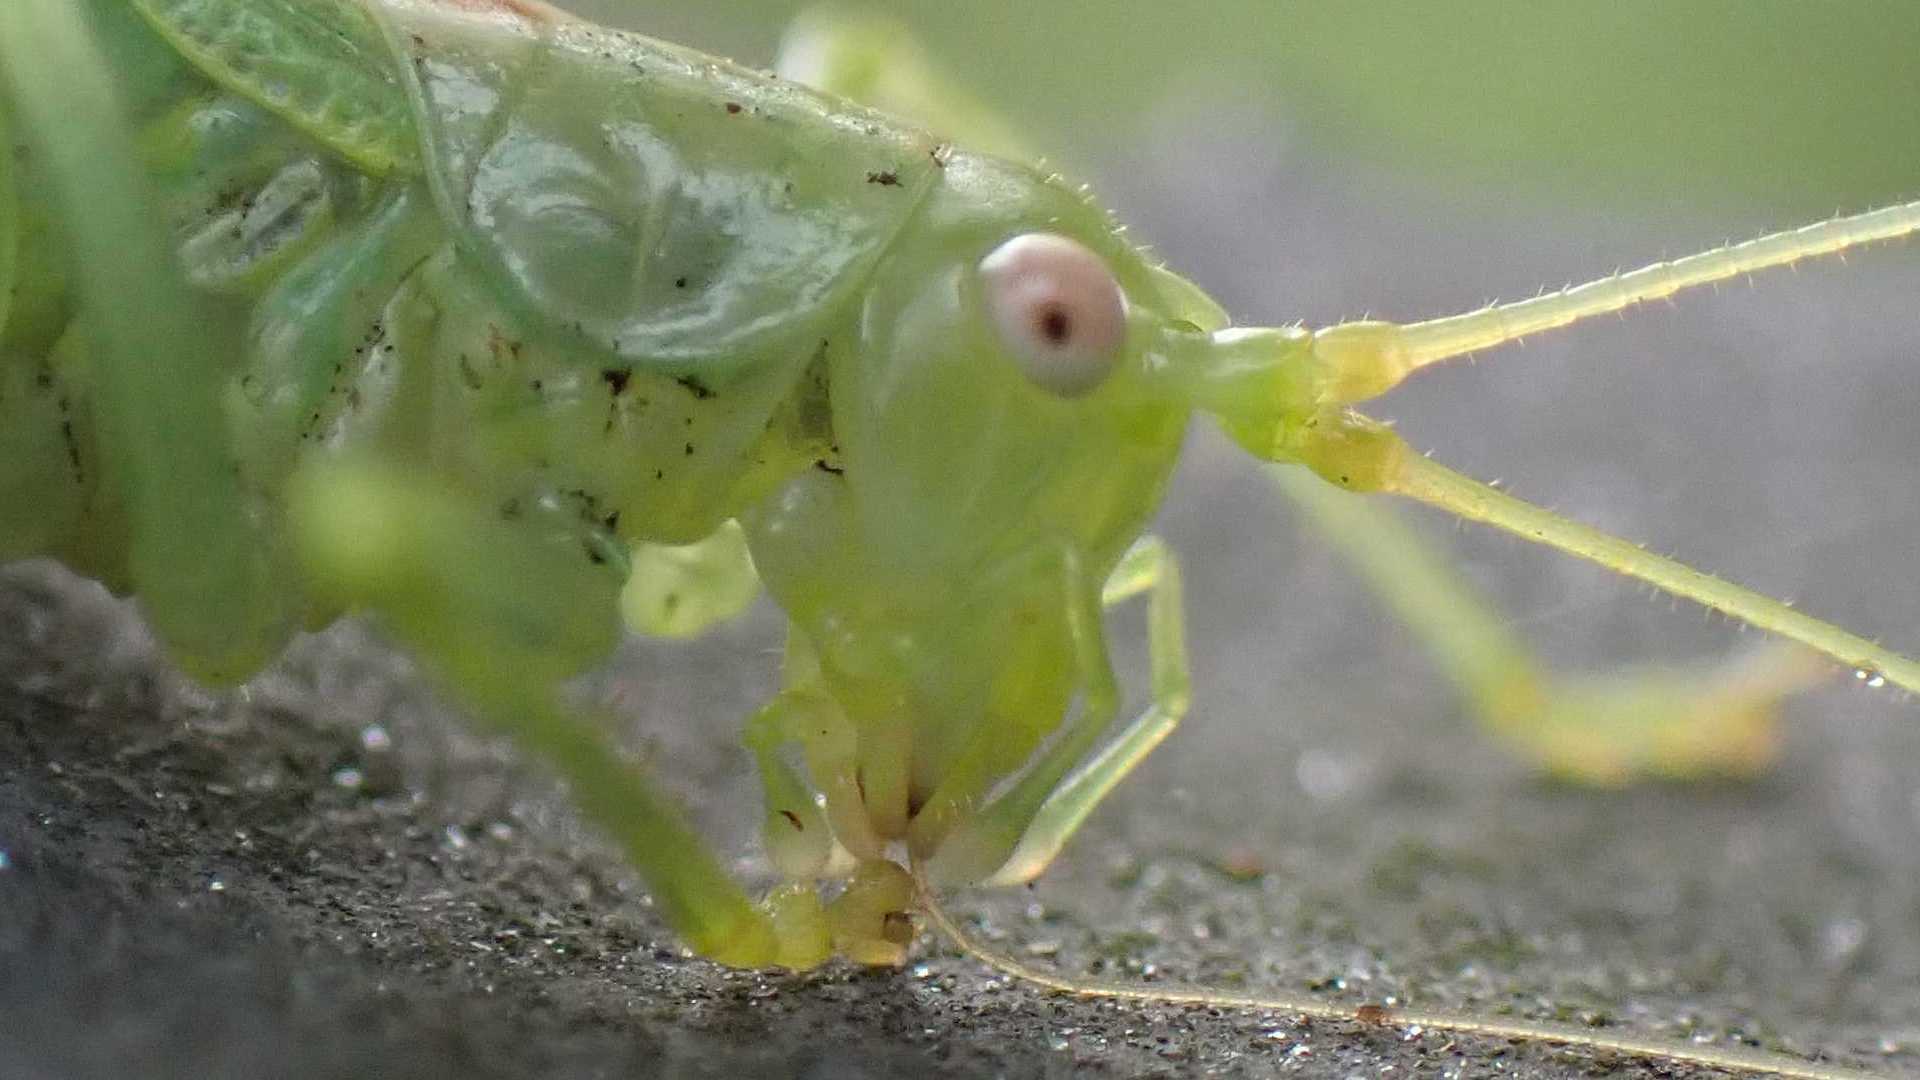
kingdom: Animalia
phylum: Arthropoda
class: Insecta
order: Orthoptera
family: Tettigoniidae
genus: Meconema
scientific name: Meconema meridionale
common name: Southern oak bush-cricket
